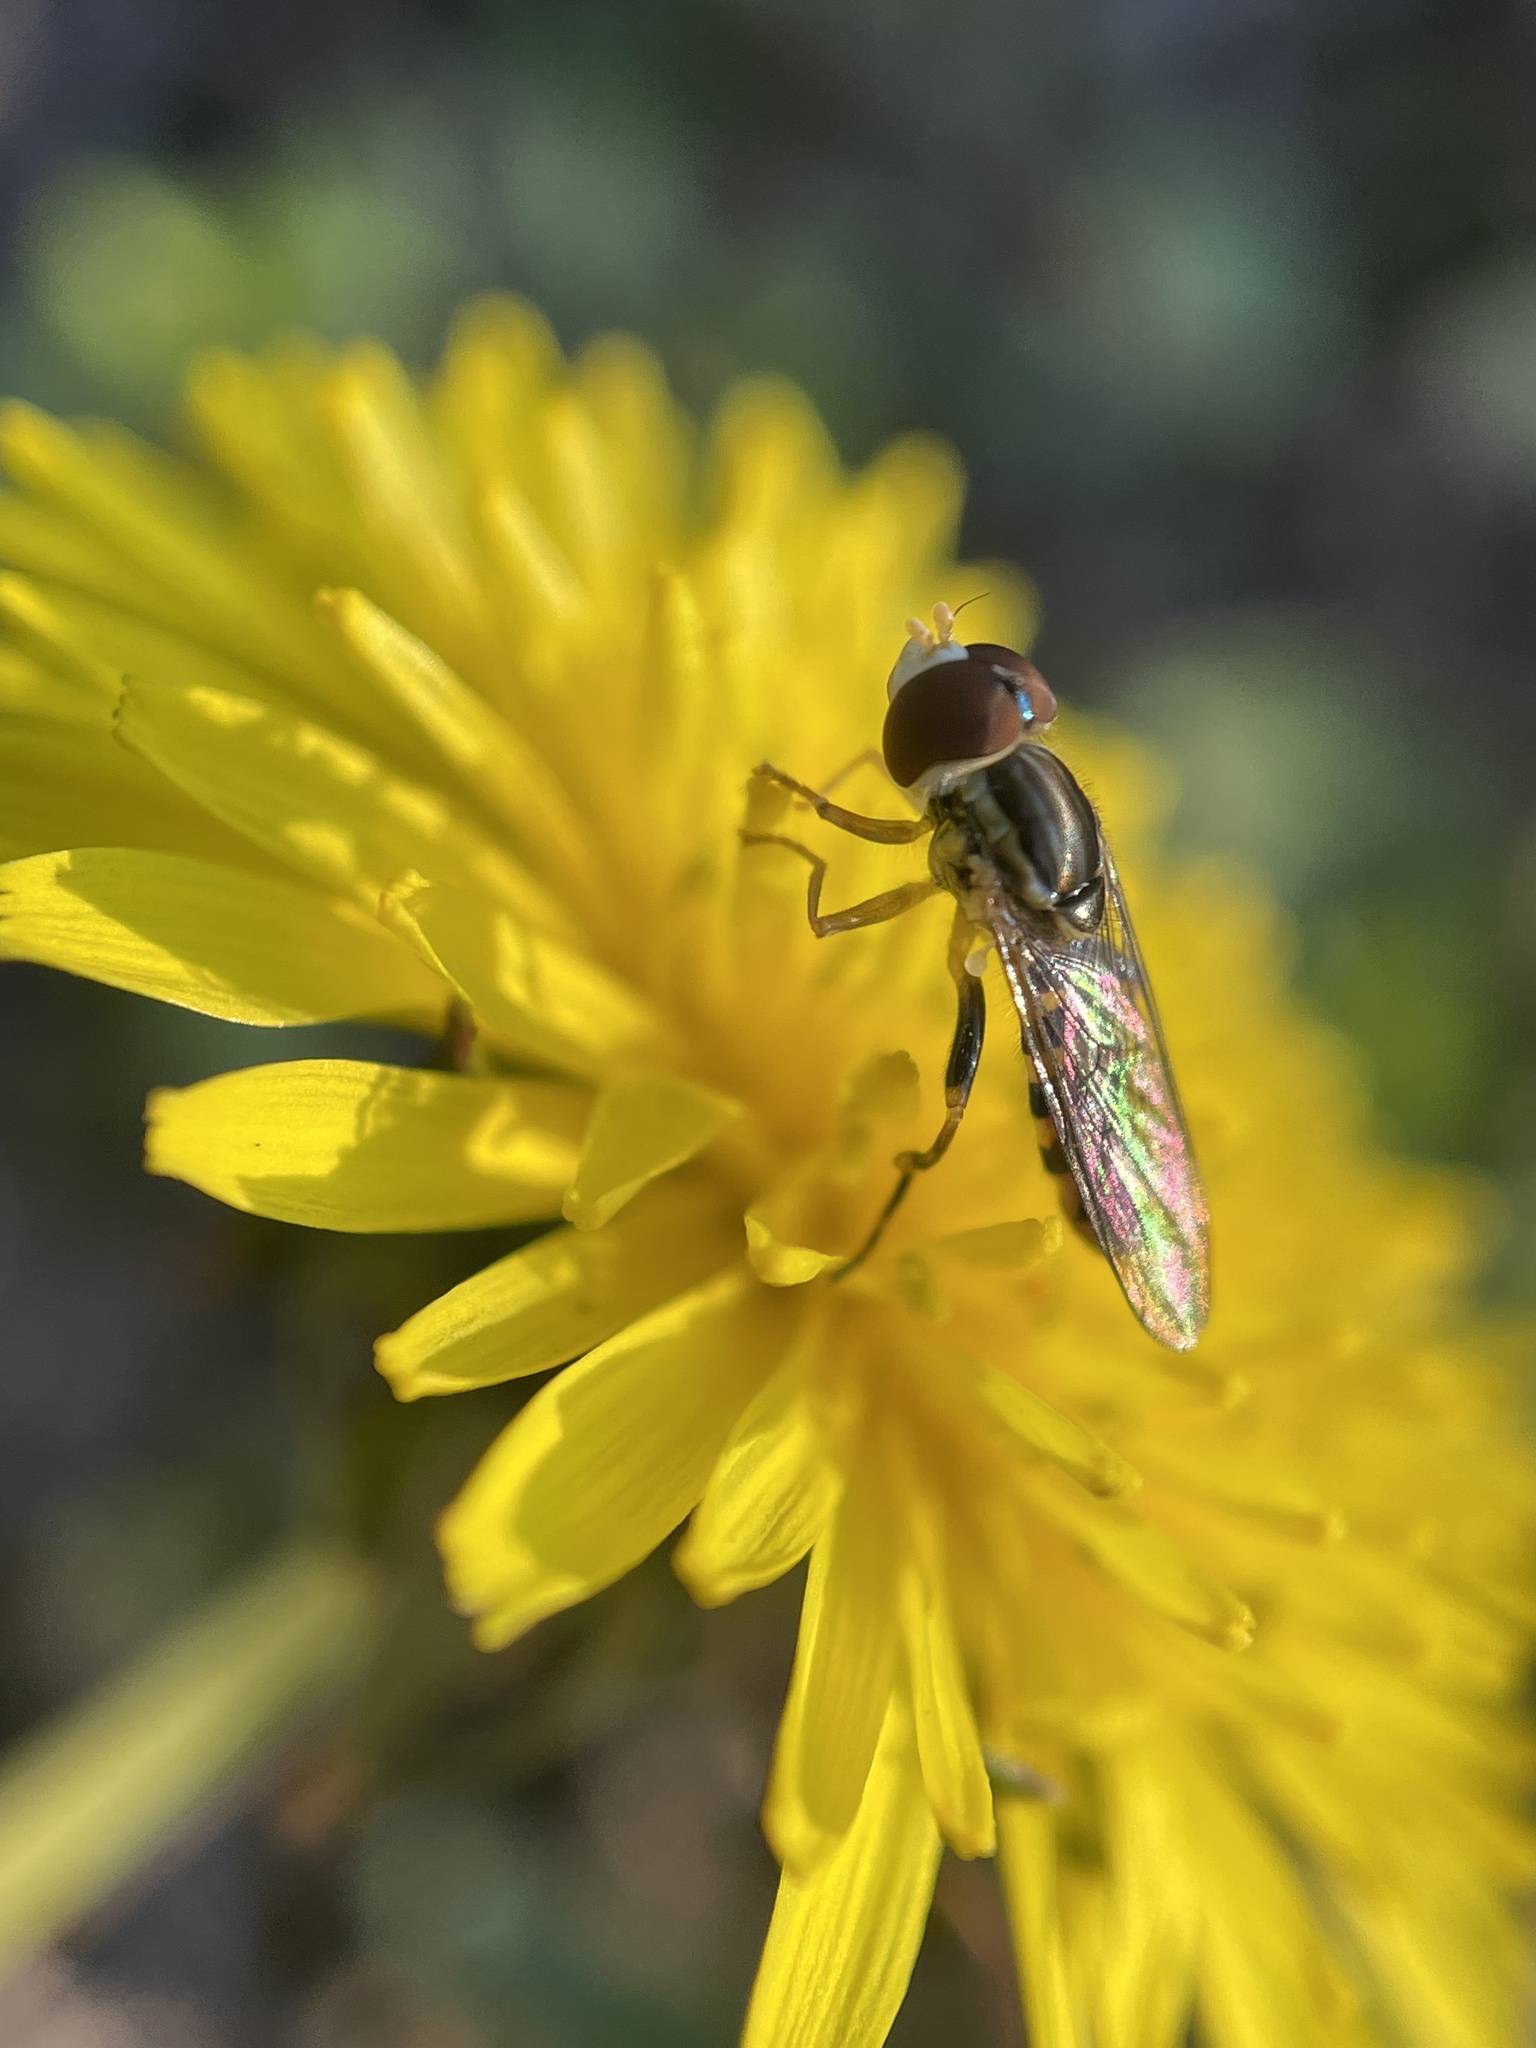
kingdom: Animalia
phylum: Arthropoda
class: Insecta
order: Diptera
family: Syrphidae
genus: Toxomerus
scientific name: Toxomerus geminatus
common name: Eastern calligrapher
